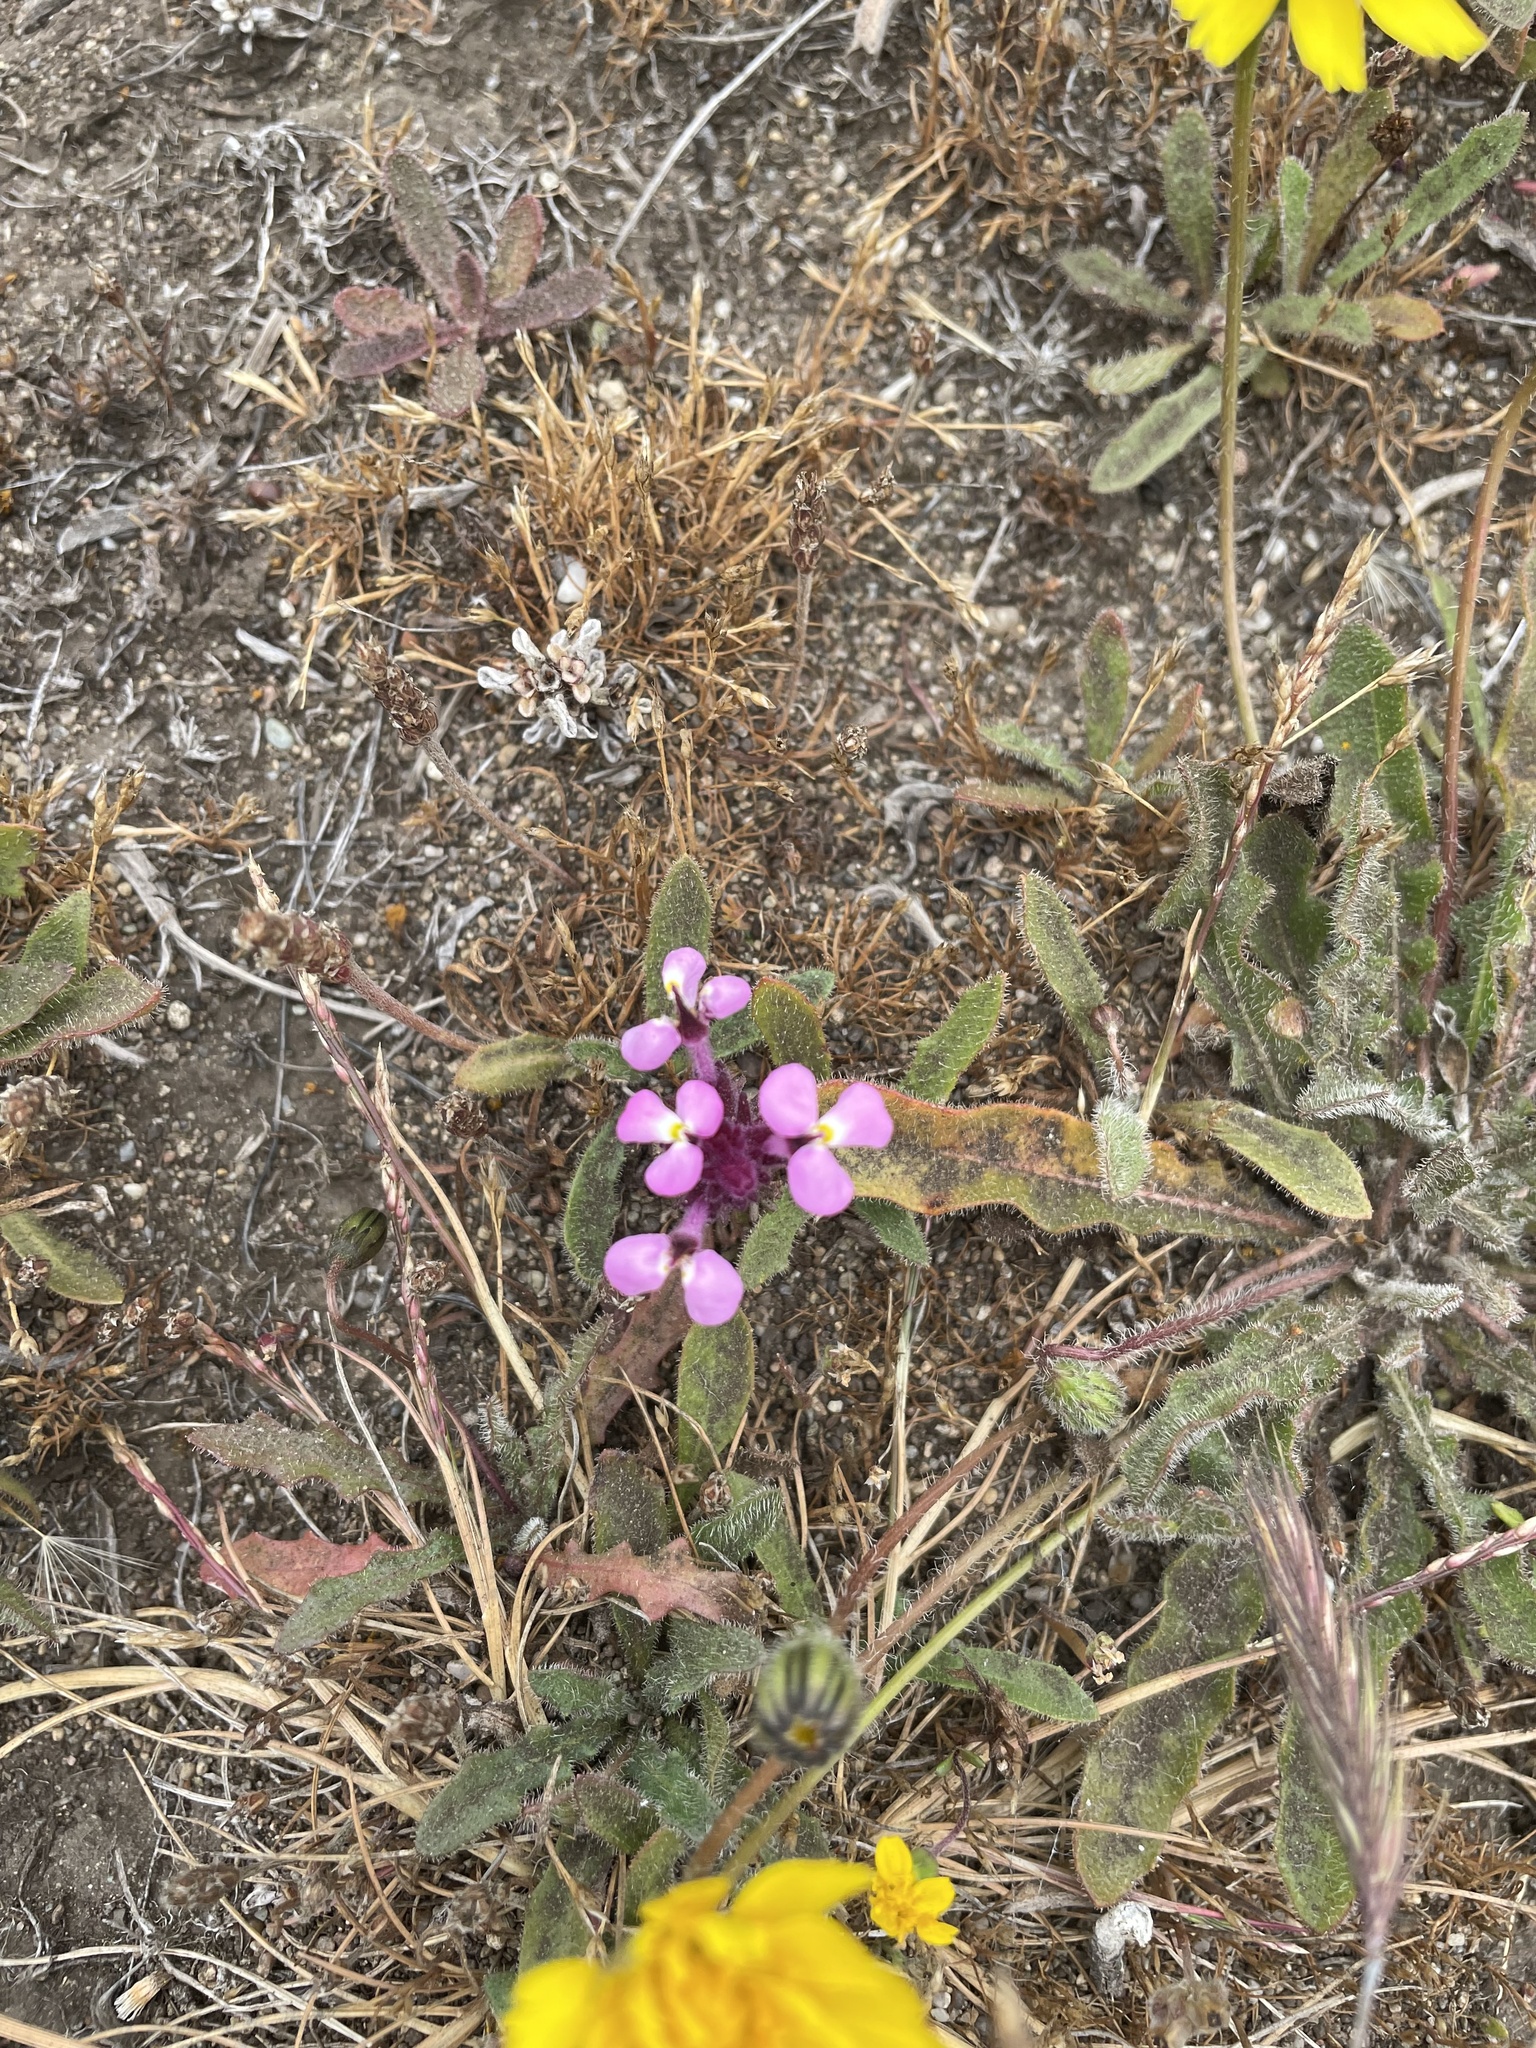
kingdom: Plantae
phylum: Tracheophyta
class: Magnoliopsida
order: Lamiales
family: Orobanchaceae
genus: Triphysaria
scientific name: Triphysaria eriantha
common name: Johnny-tuck
